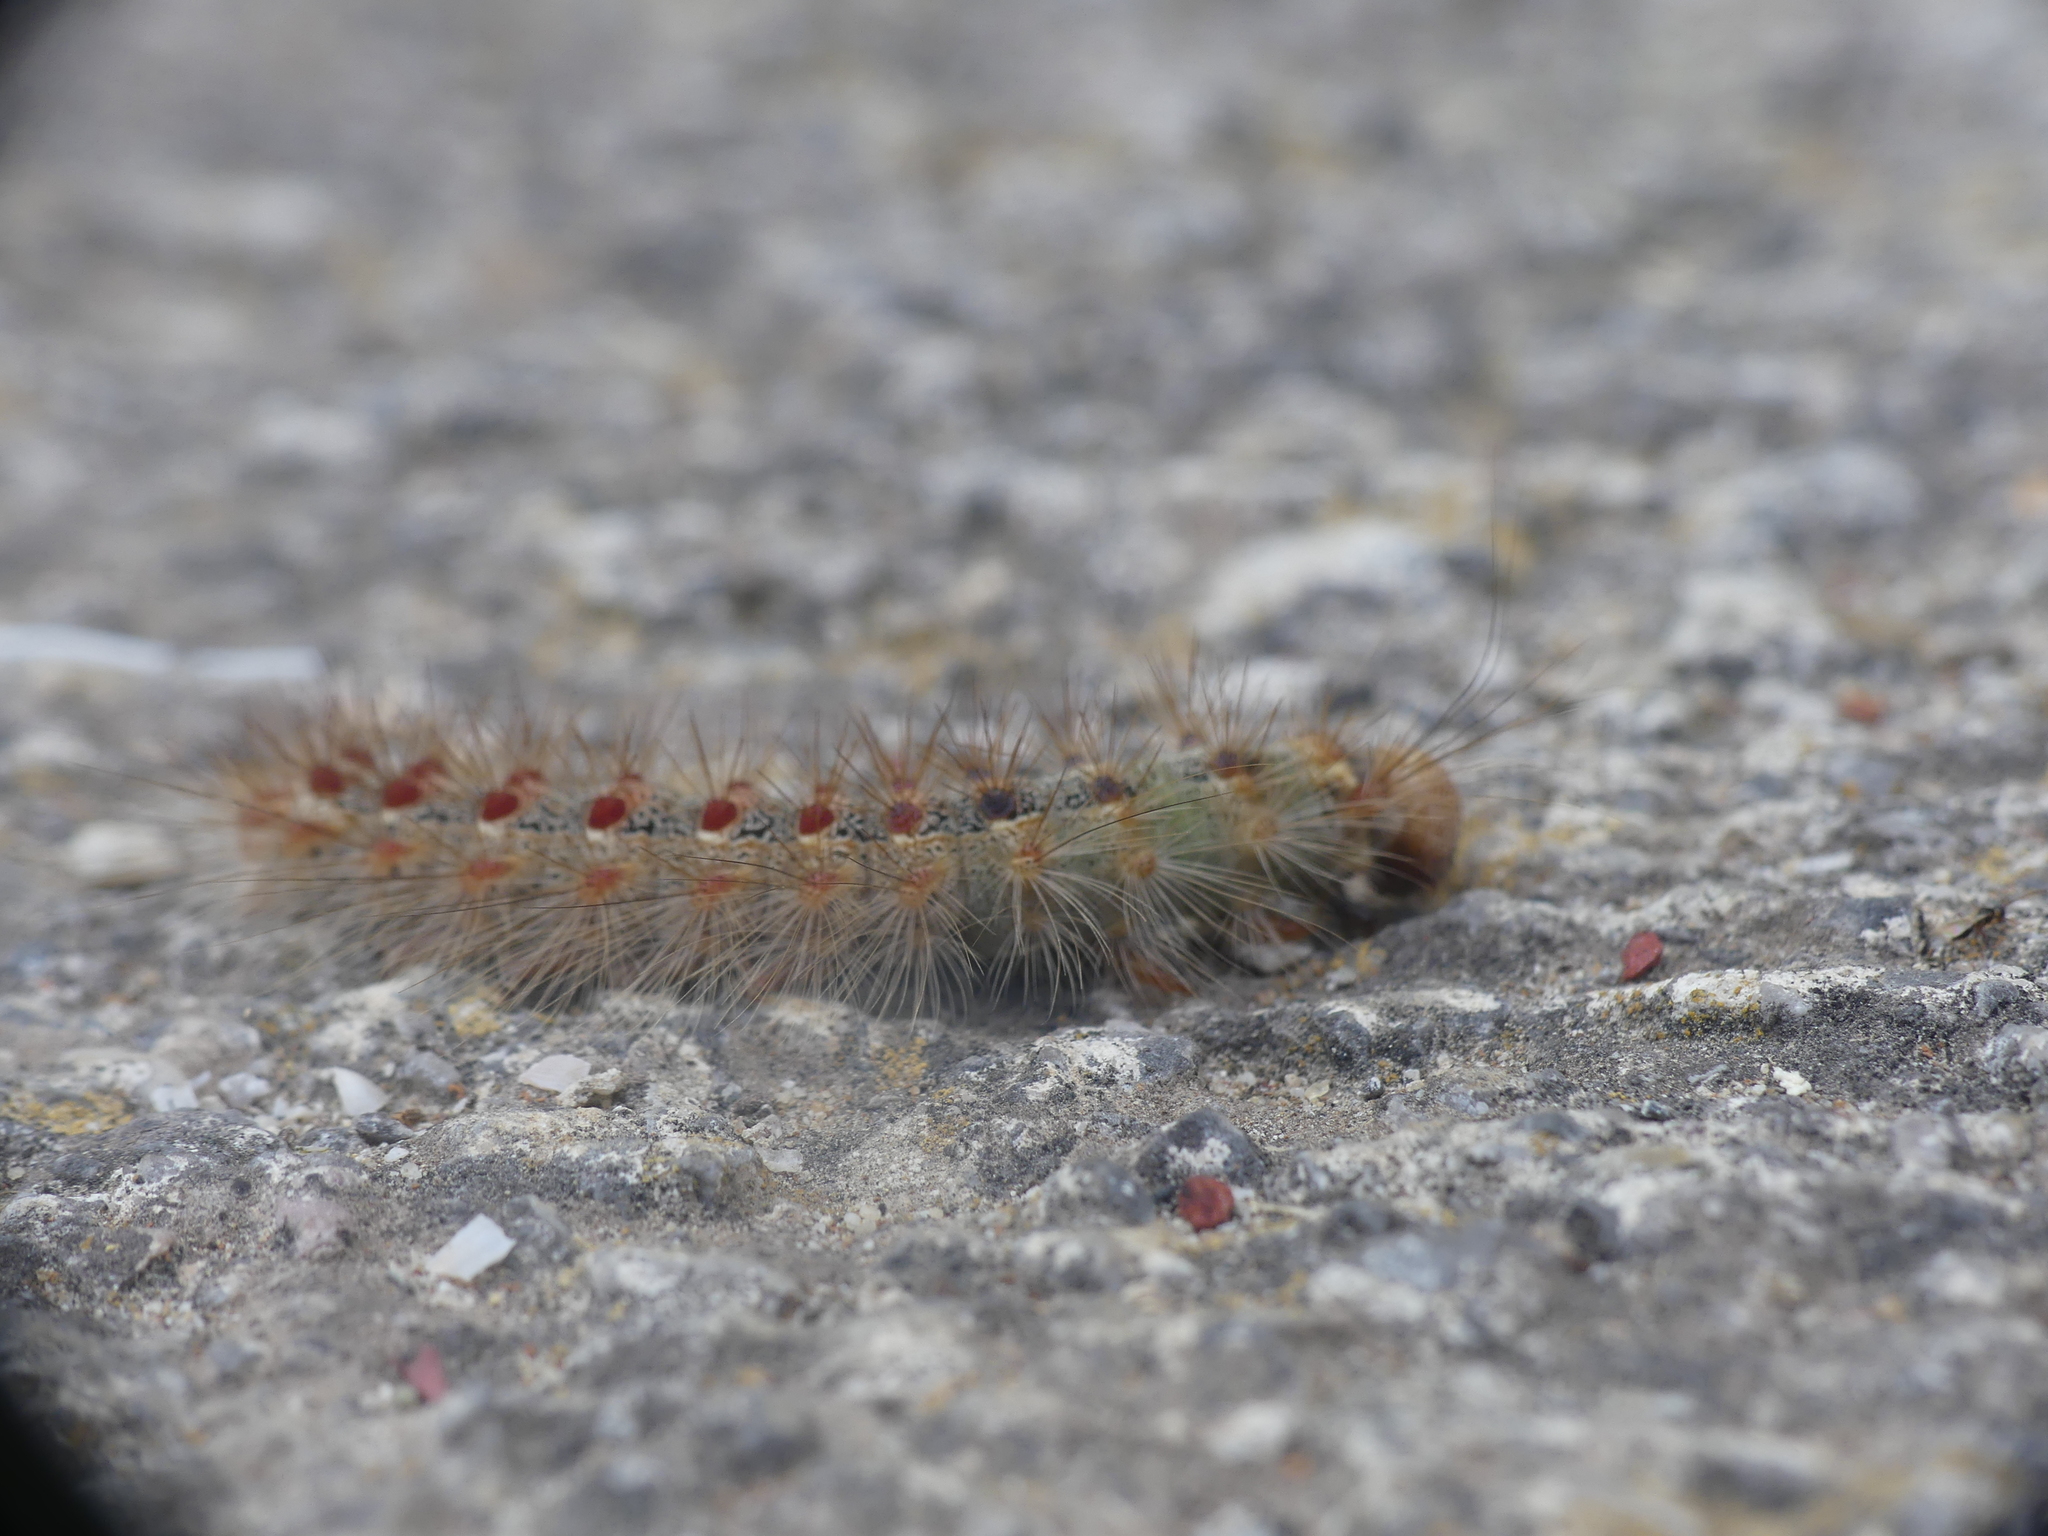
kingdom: Animalia
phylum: Arthropoda
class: Insecta
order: Lepidoptera
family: Erebidae
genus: Lymantria
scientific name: Lymantria dispar
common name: Gypsy moth
